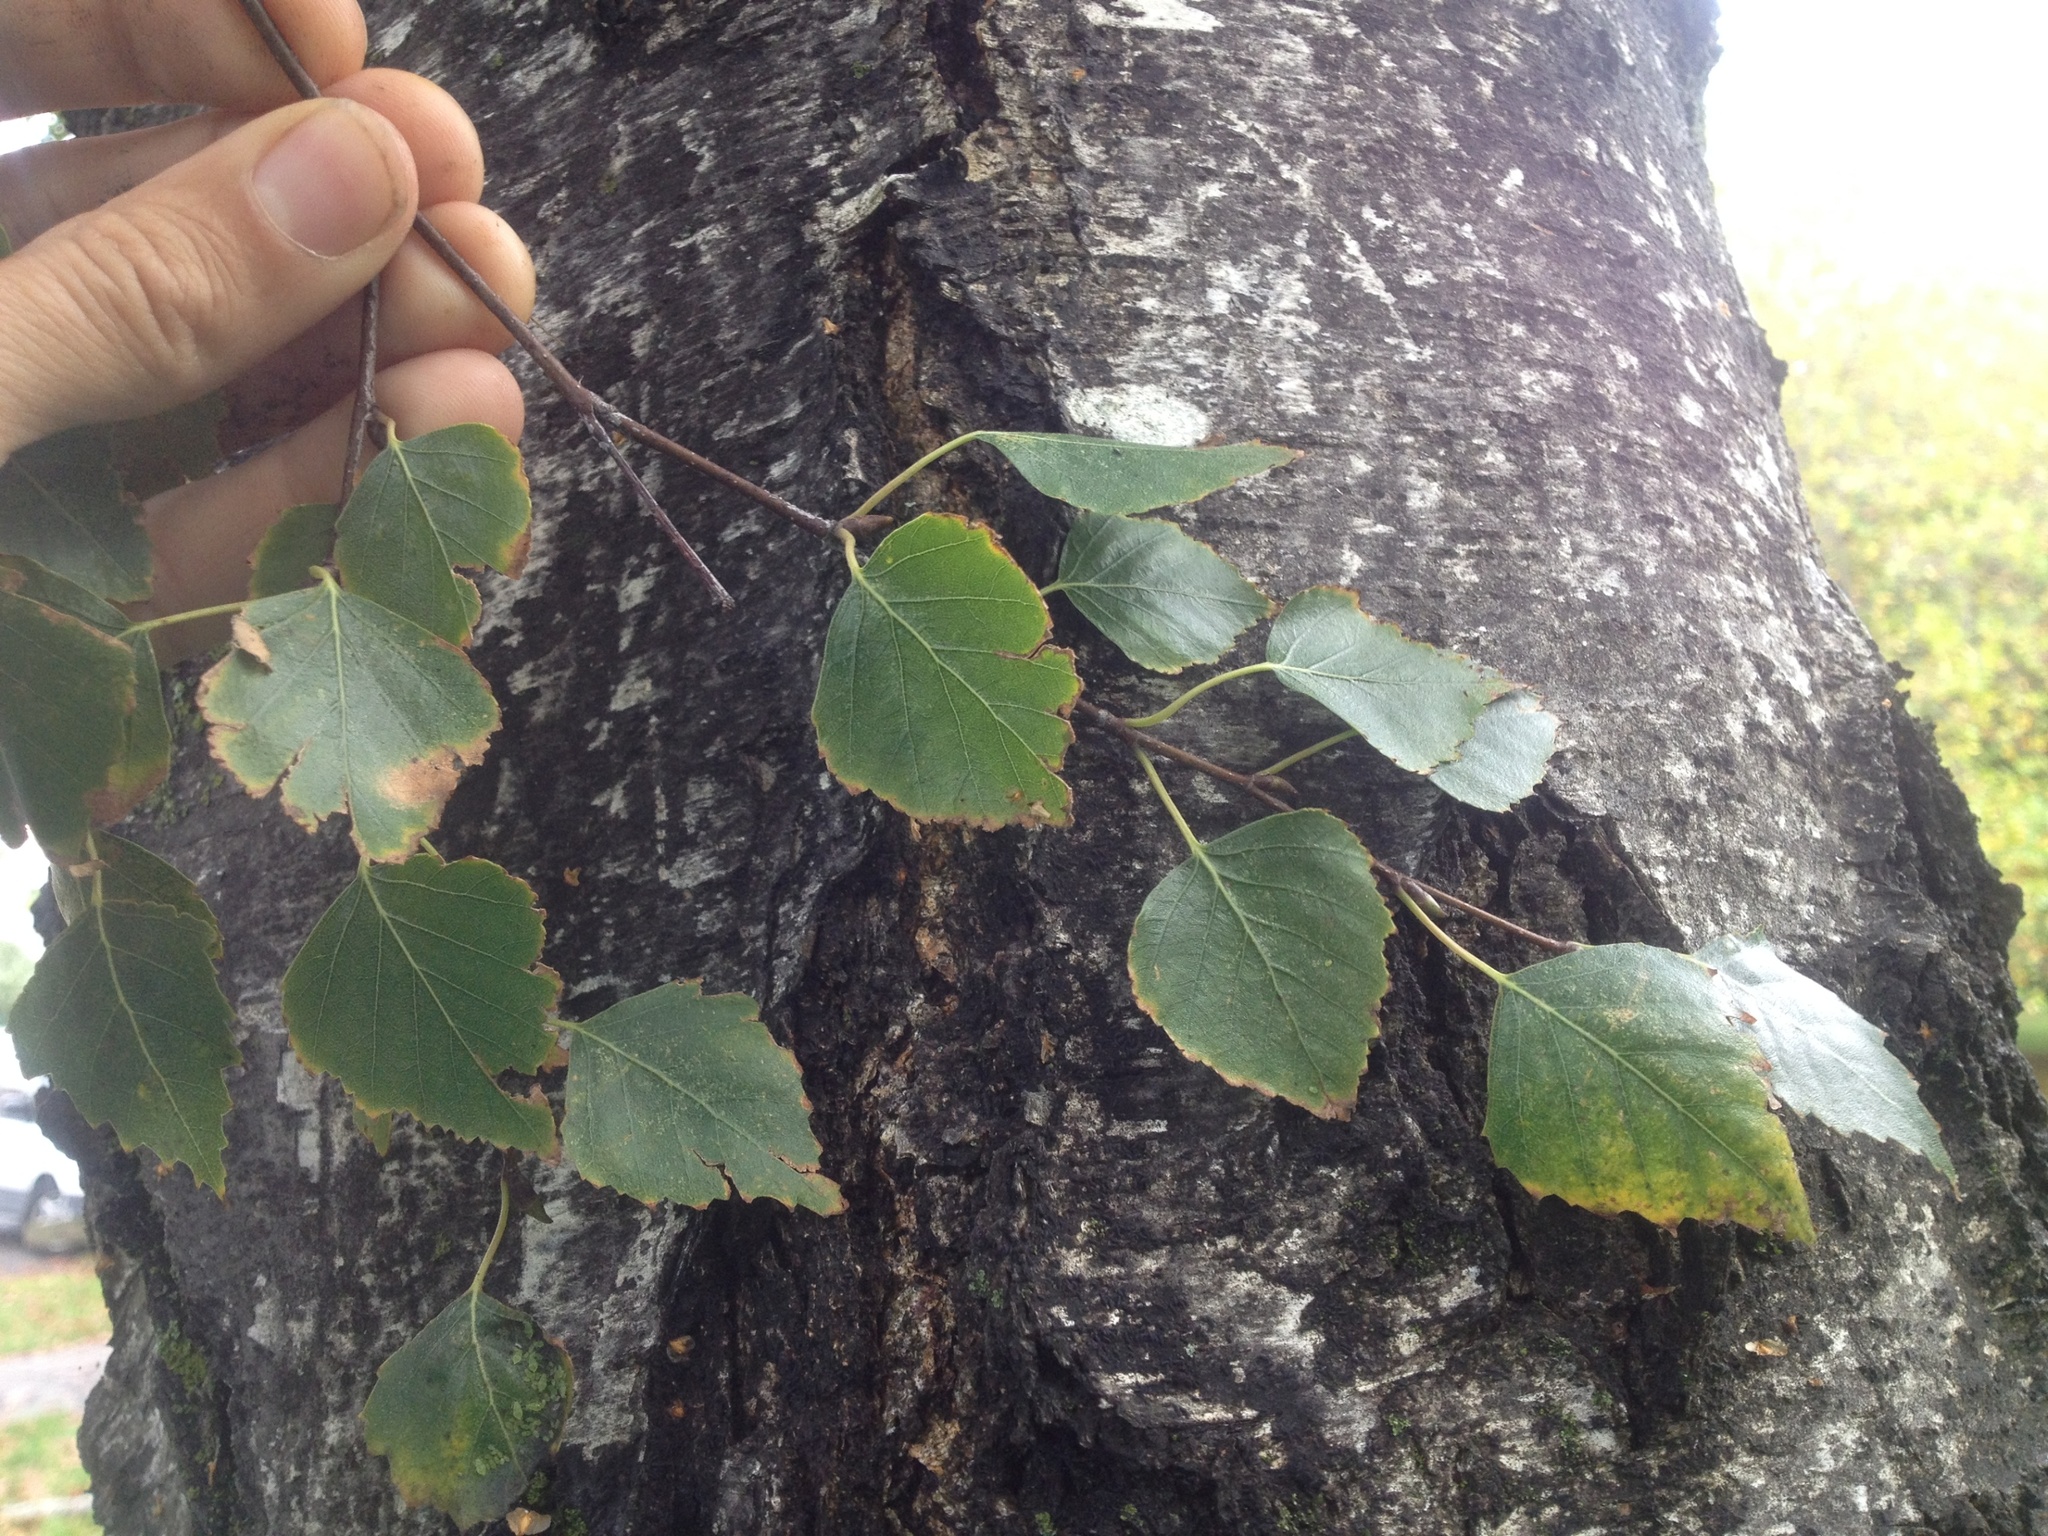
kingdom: Plantae
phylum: Tracheophyta
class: Magnoliopsida
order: Fagales
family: Betulaceae
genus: Betula
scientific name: Betula pendula
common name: Silver birch
